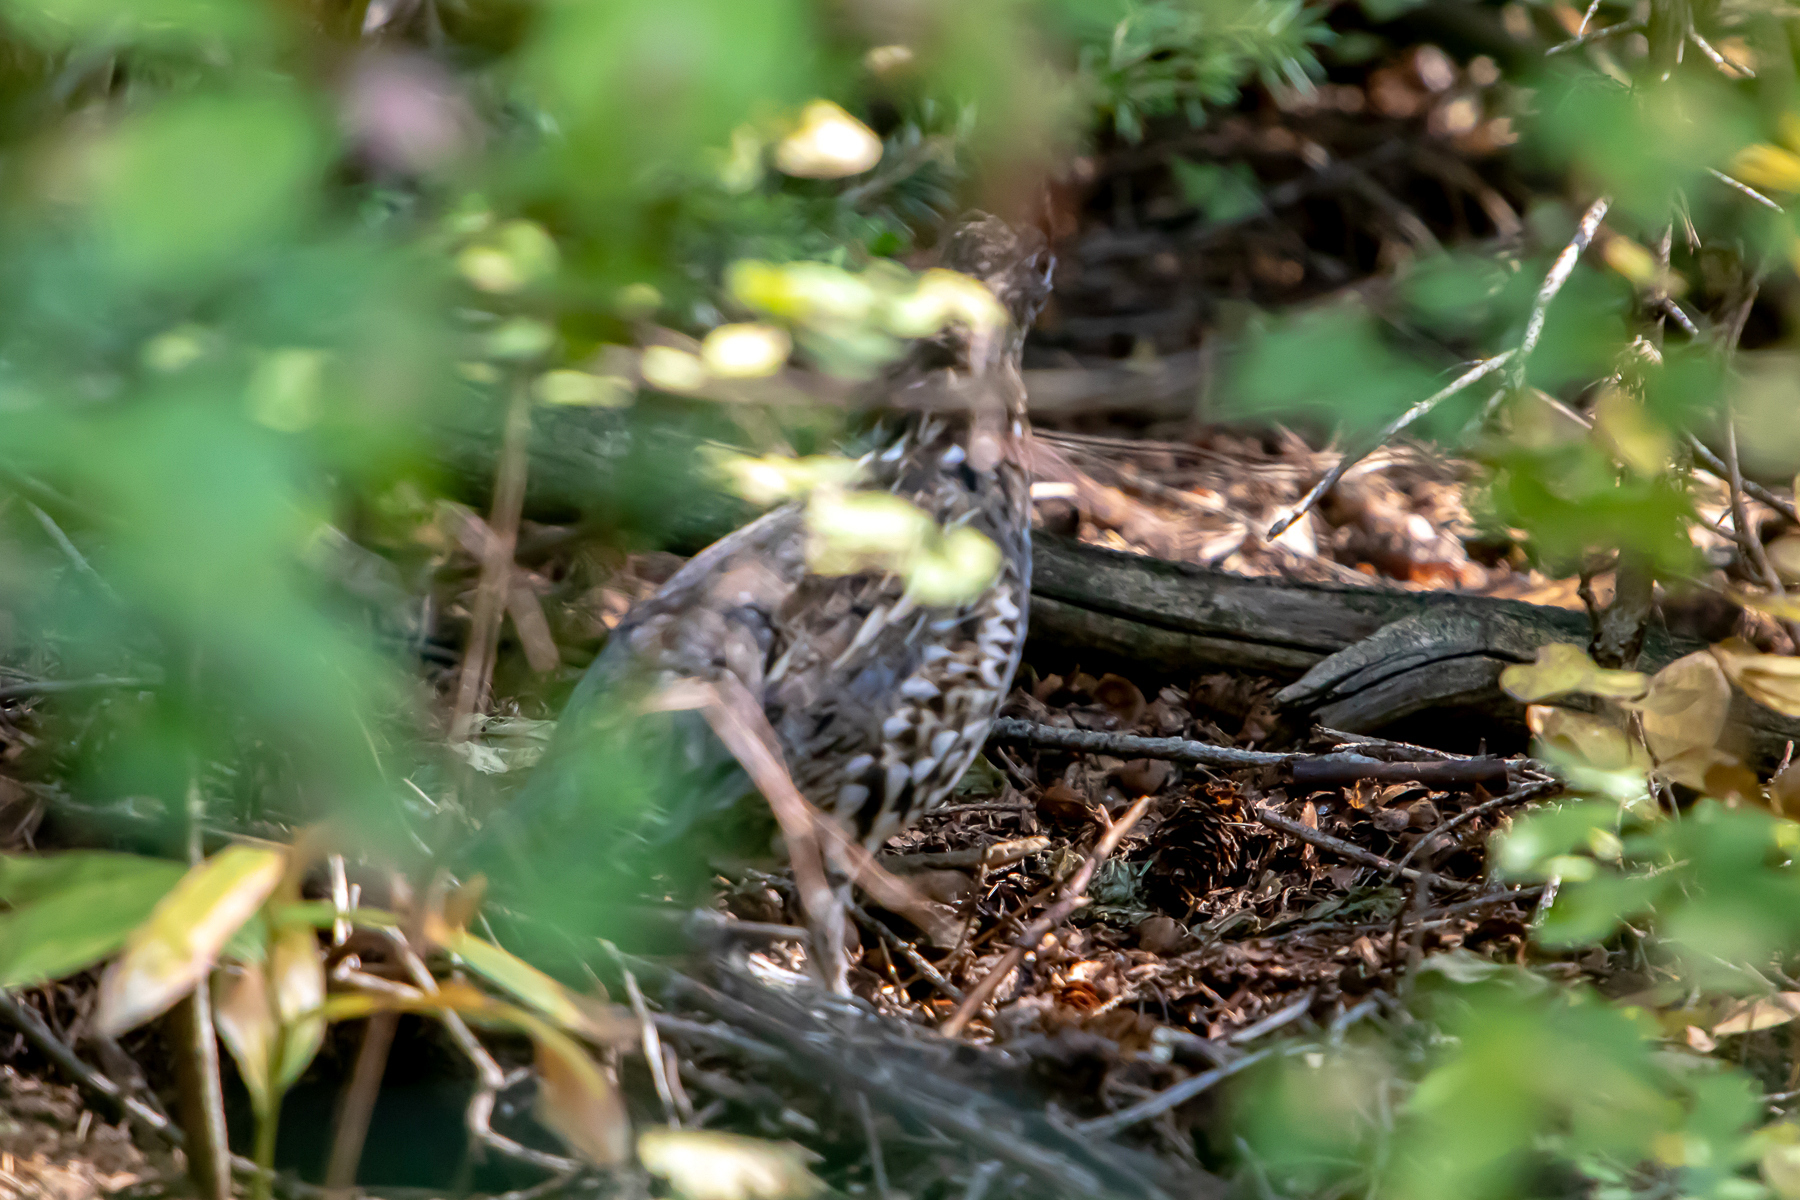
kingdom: Animalia
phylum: Chordata
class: Aves
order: Galliformes
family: Phasianidae
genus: Bonasa
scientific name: Bonasa umbellus
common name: Ruffed grouse
